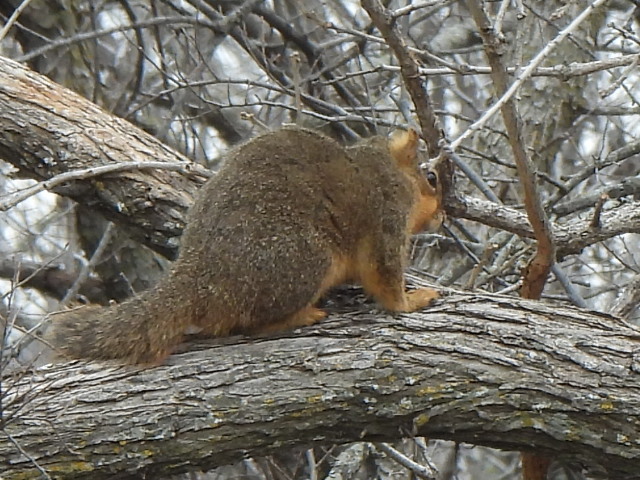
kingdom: Animalia
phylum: Chordata
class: Mammalia
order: Rodentia
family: Sciuridae
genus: Sciurus
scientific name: Sciurus niger
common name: Fox squirrel
